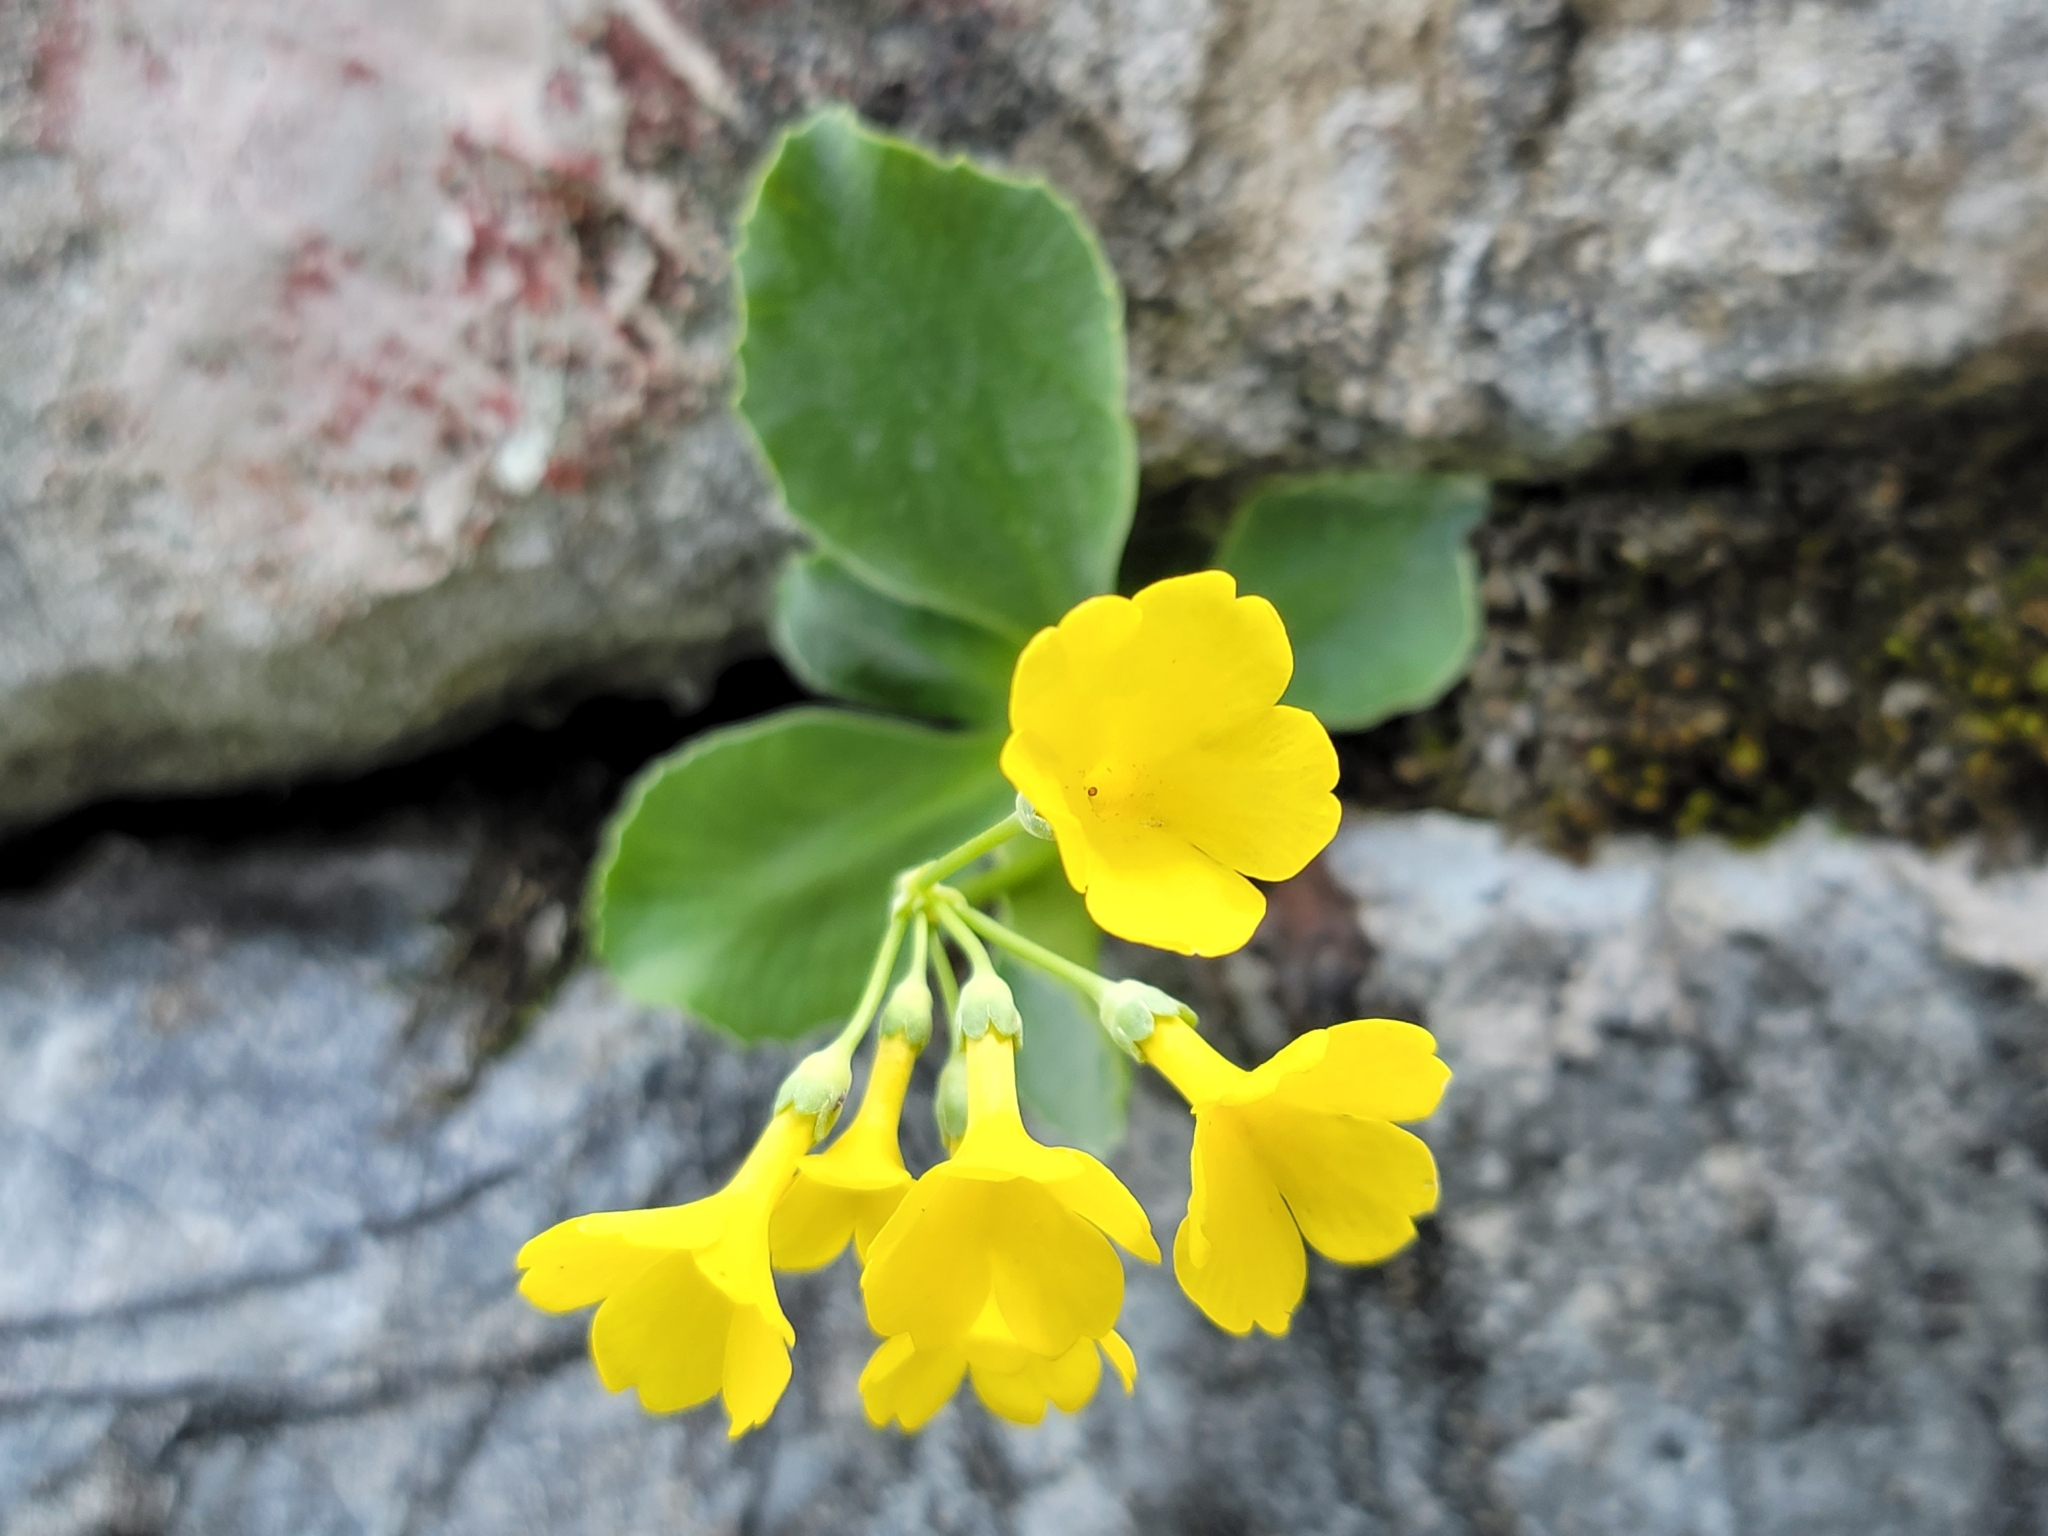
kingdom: Plantae
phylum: Tracheophyta
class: Magnoliopsida
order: Ericales
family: Primulaceae
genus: Primula
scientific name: Primula auricula
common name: Auricula
